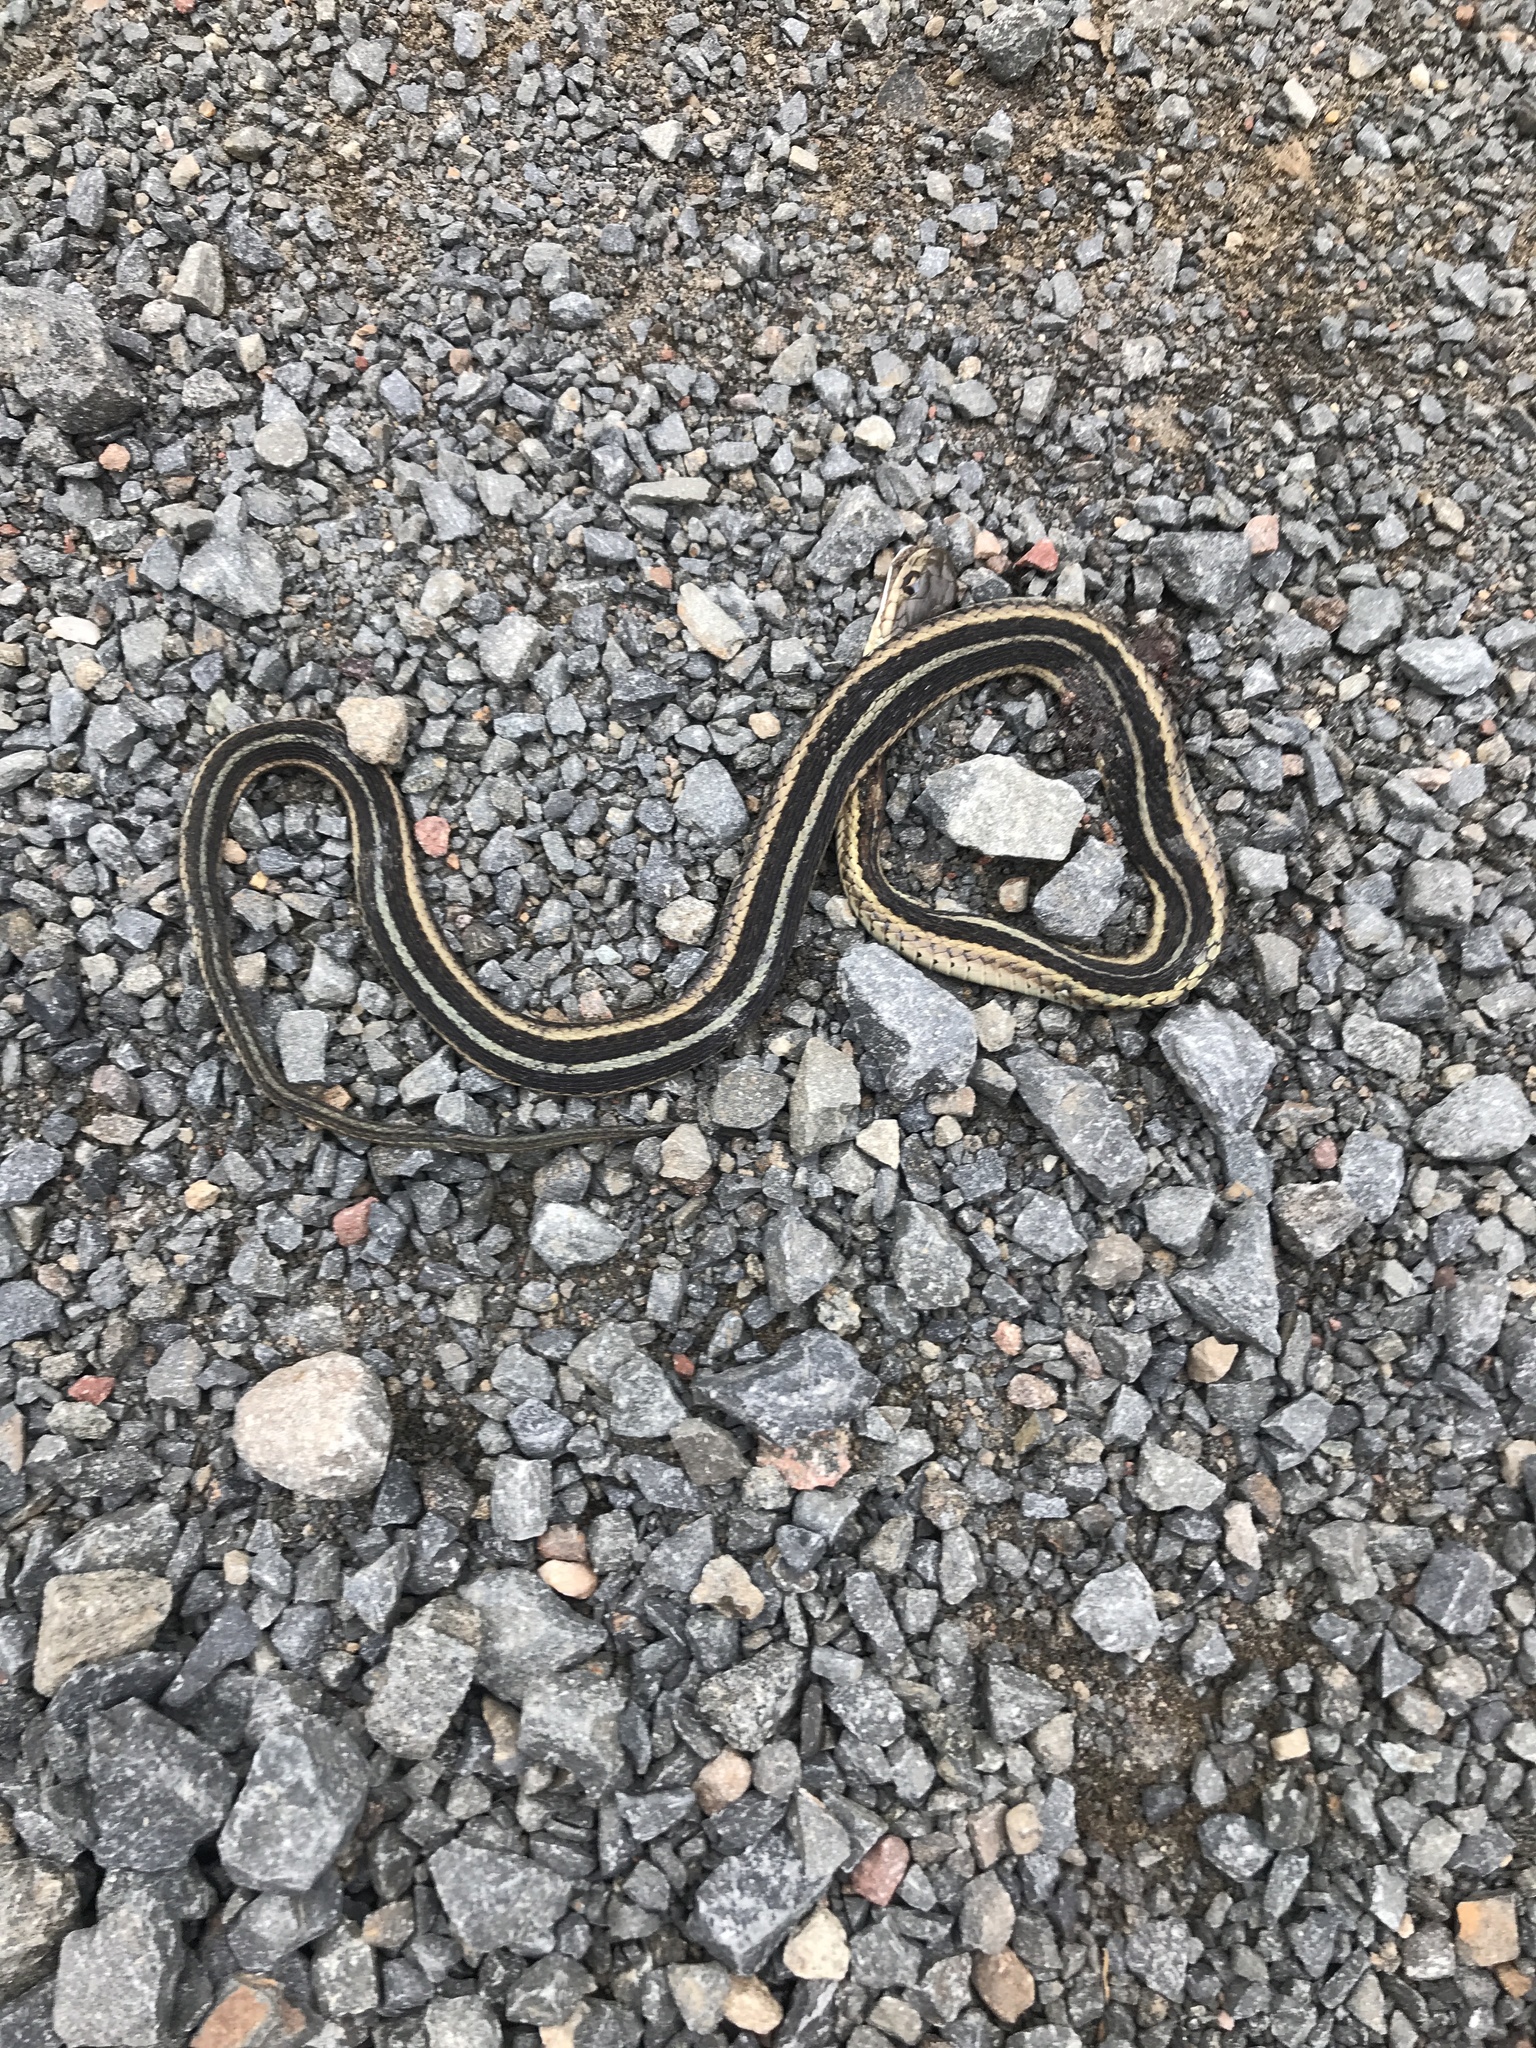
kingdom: Animalia
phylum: Chordata
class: Squamata
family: Colubridae
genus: Thamnophis
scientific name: Thamnophis sirtalis
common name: Common garter snake
